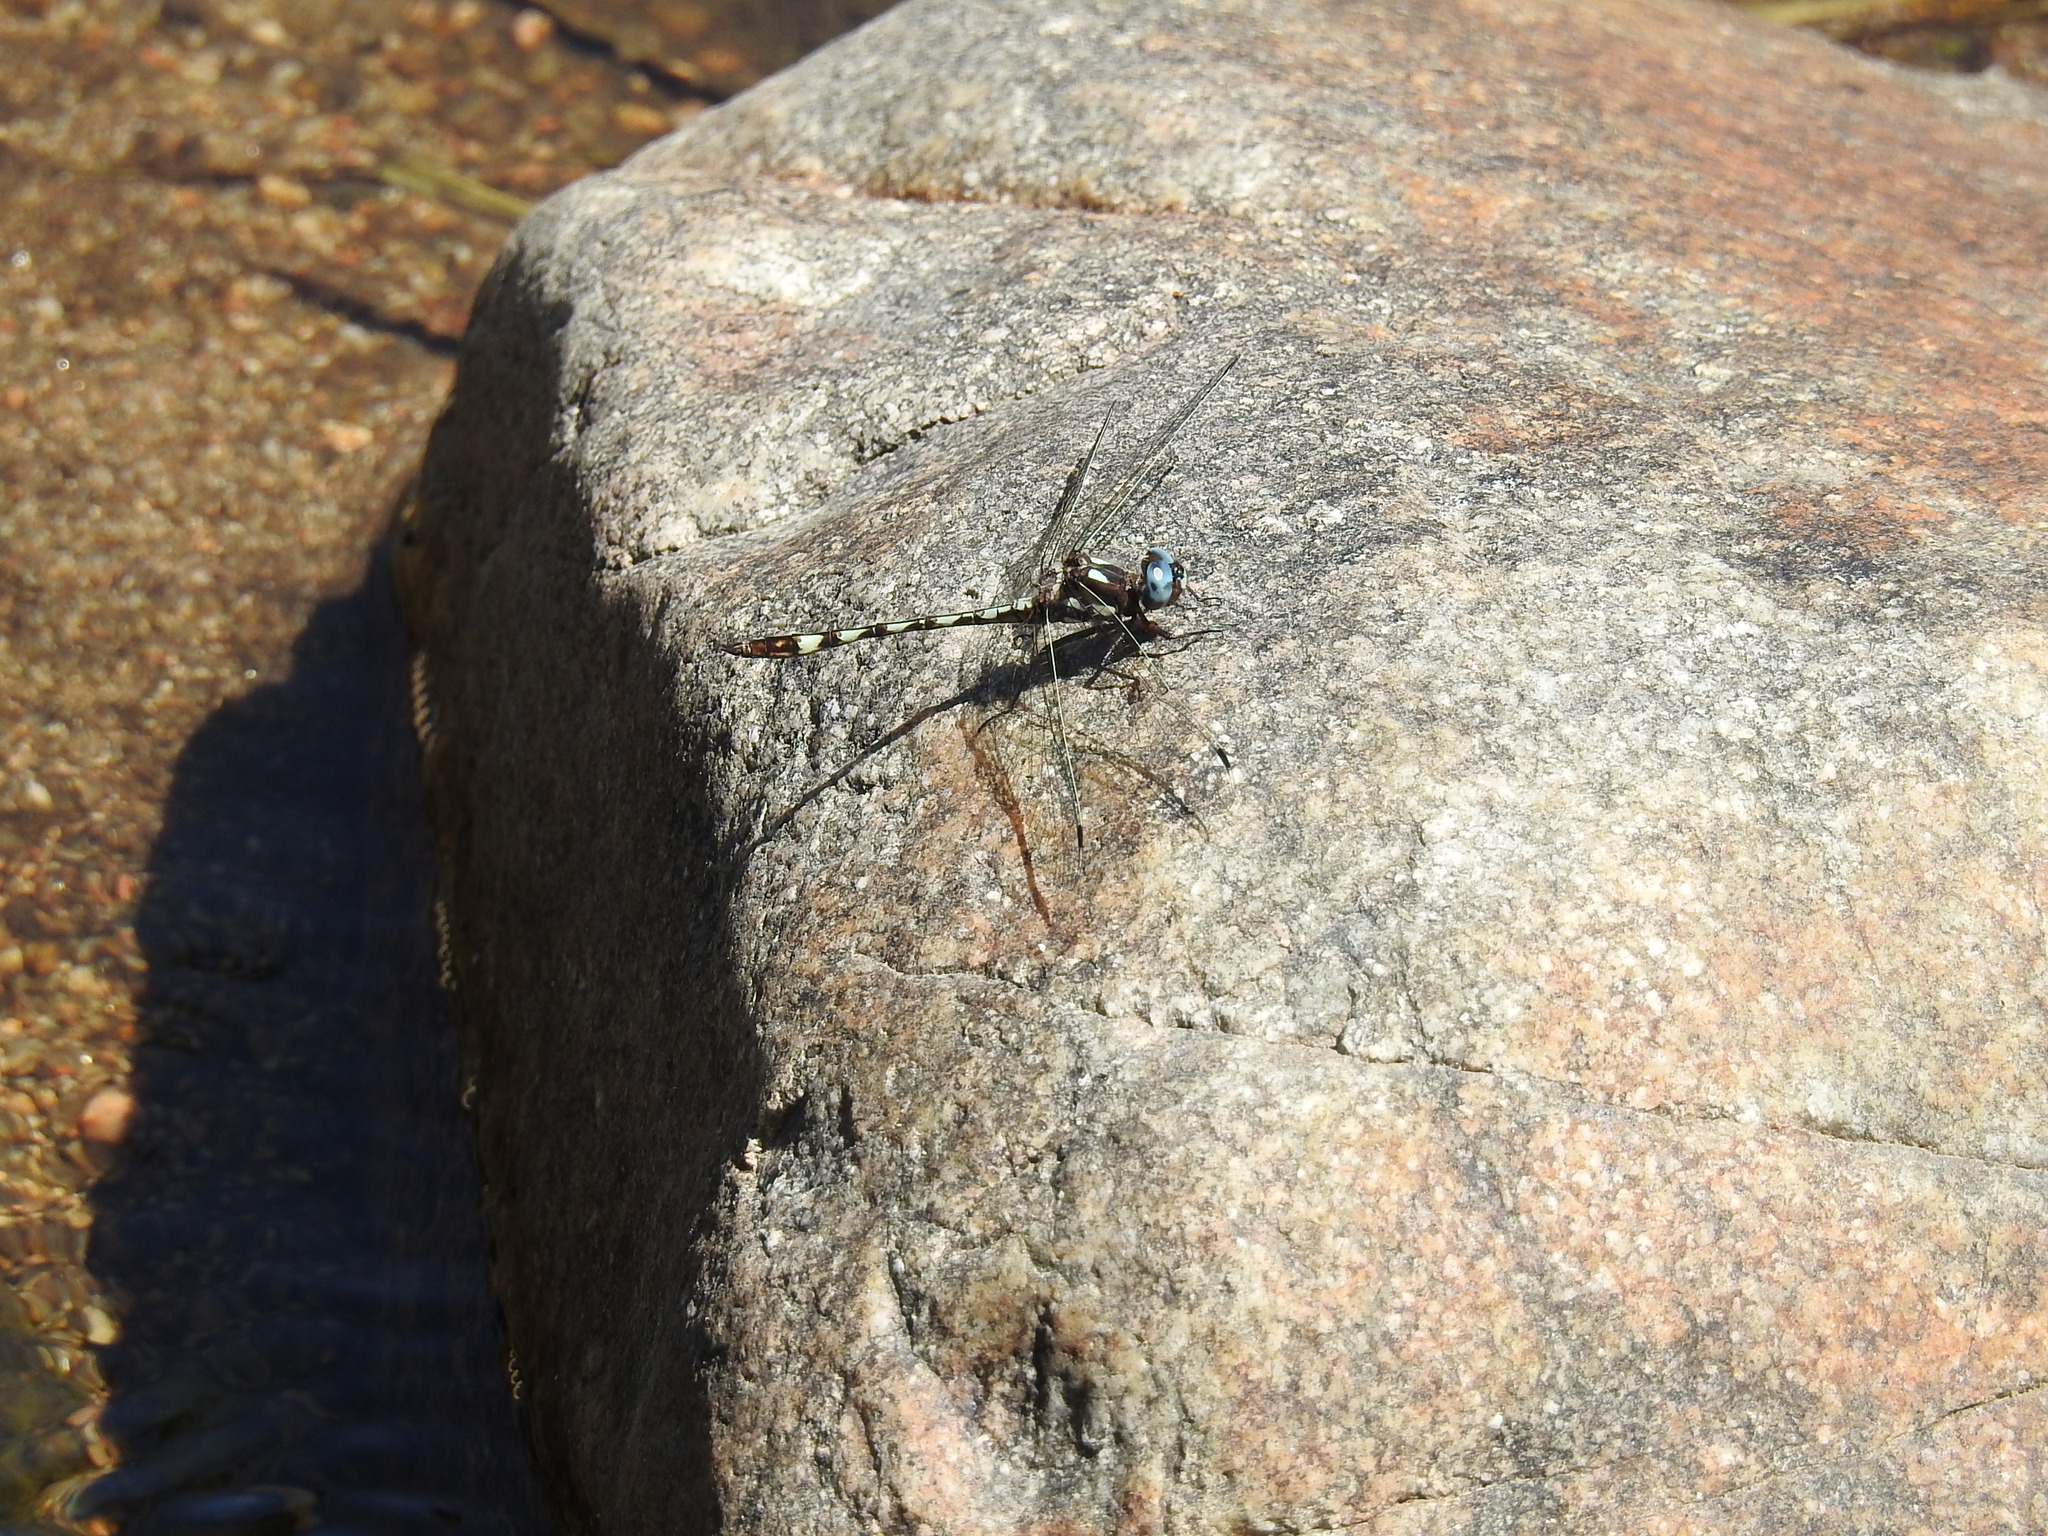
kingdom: Animalia
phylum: Arthropoda
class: Insecta
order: Odonata
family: Libellulidae
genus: Macrothemis
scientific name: Macrothemis imitans
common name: Ivory-striped sylph
